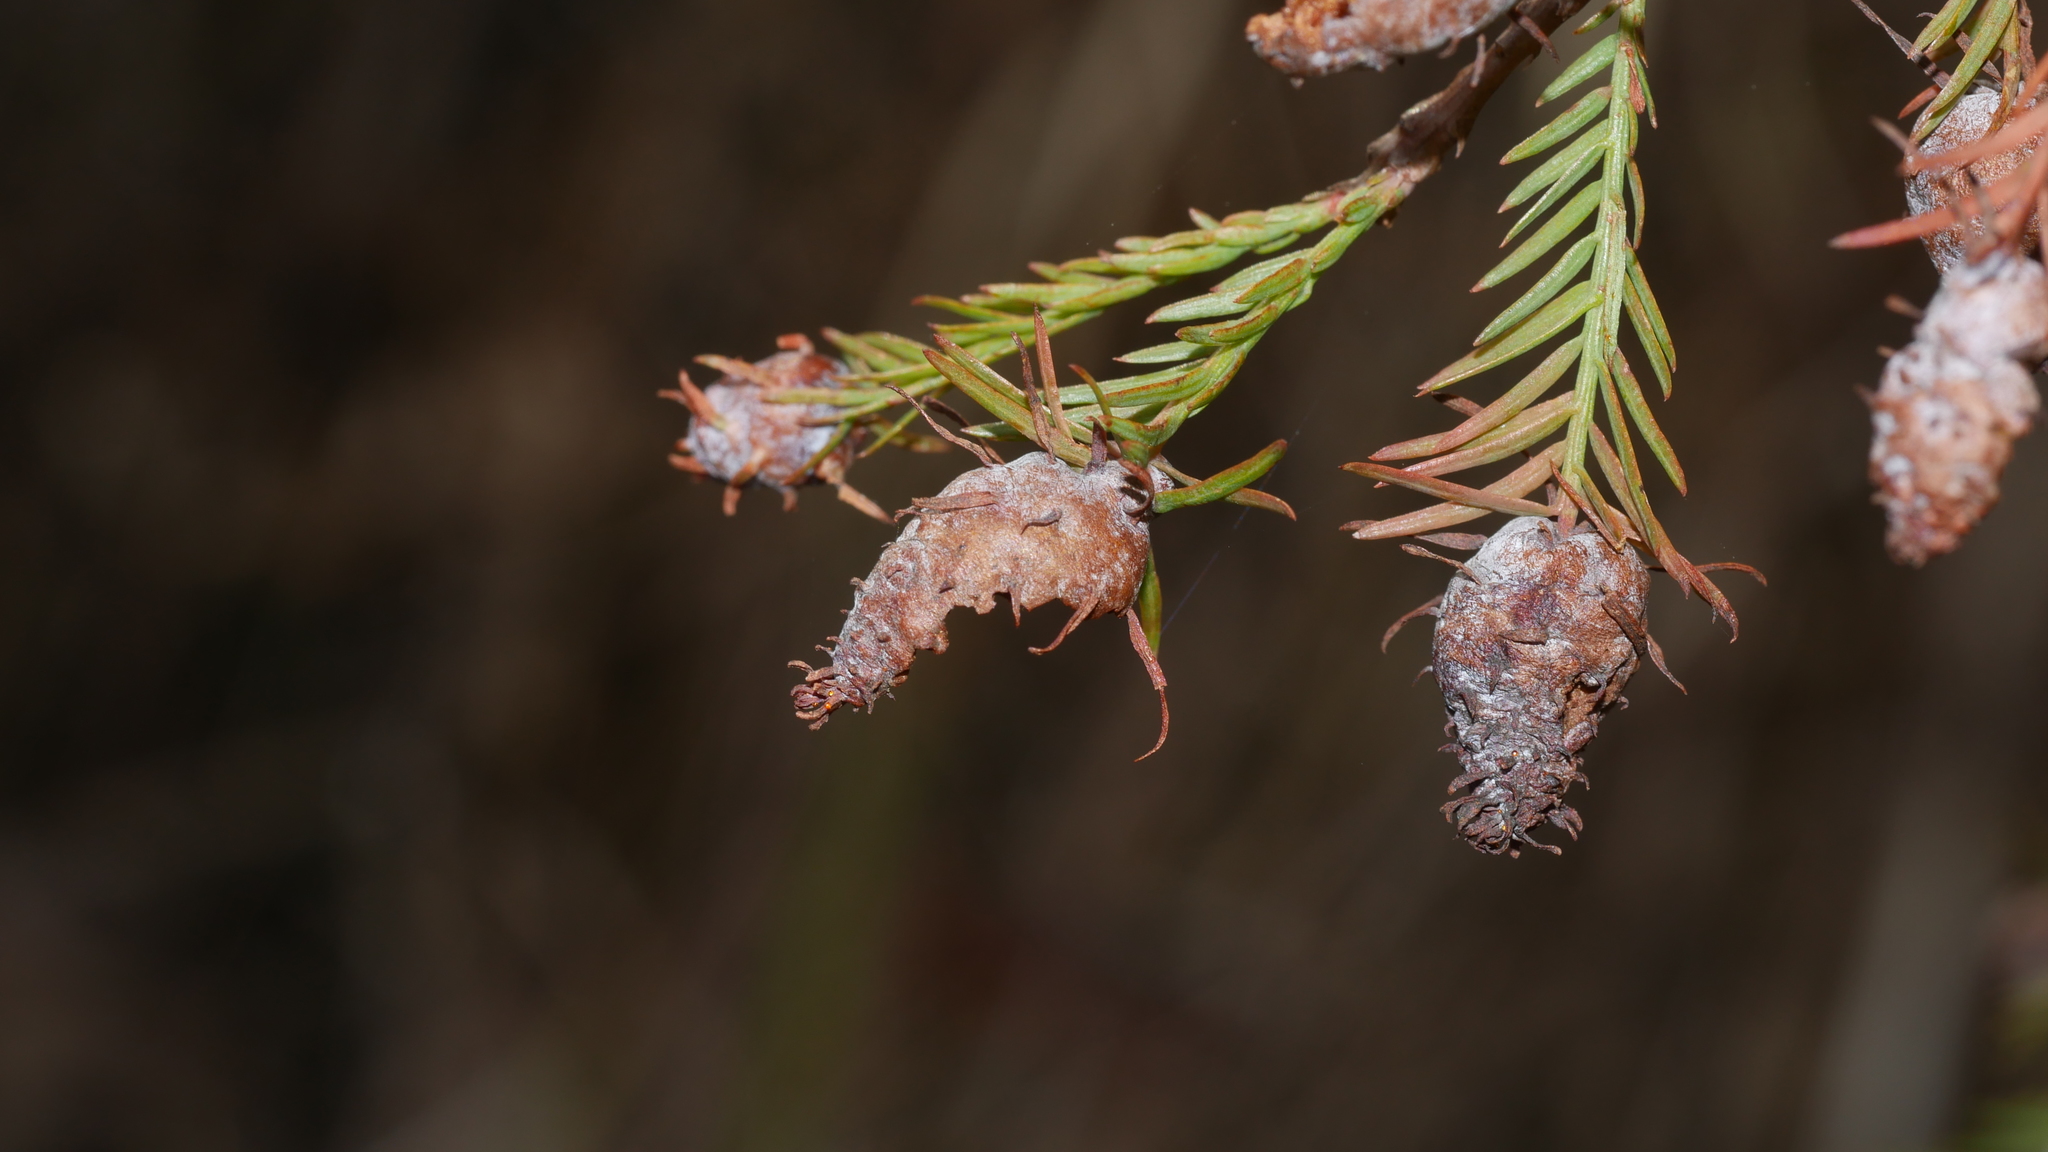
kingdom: Animalia
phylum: Arthropoda
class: Insecta
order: Diptera
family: Cecidomyiidae
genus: Taxodiomyia
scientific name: Taxodiomyia cupressiananassa
